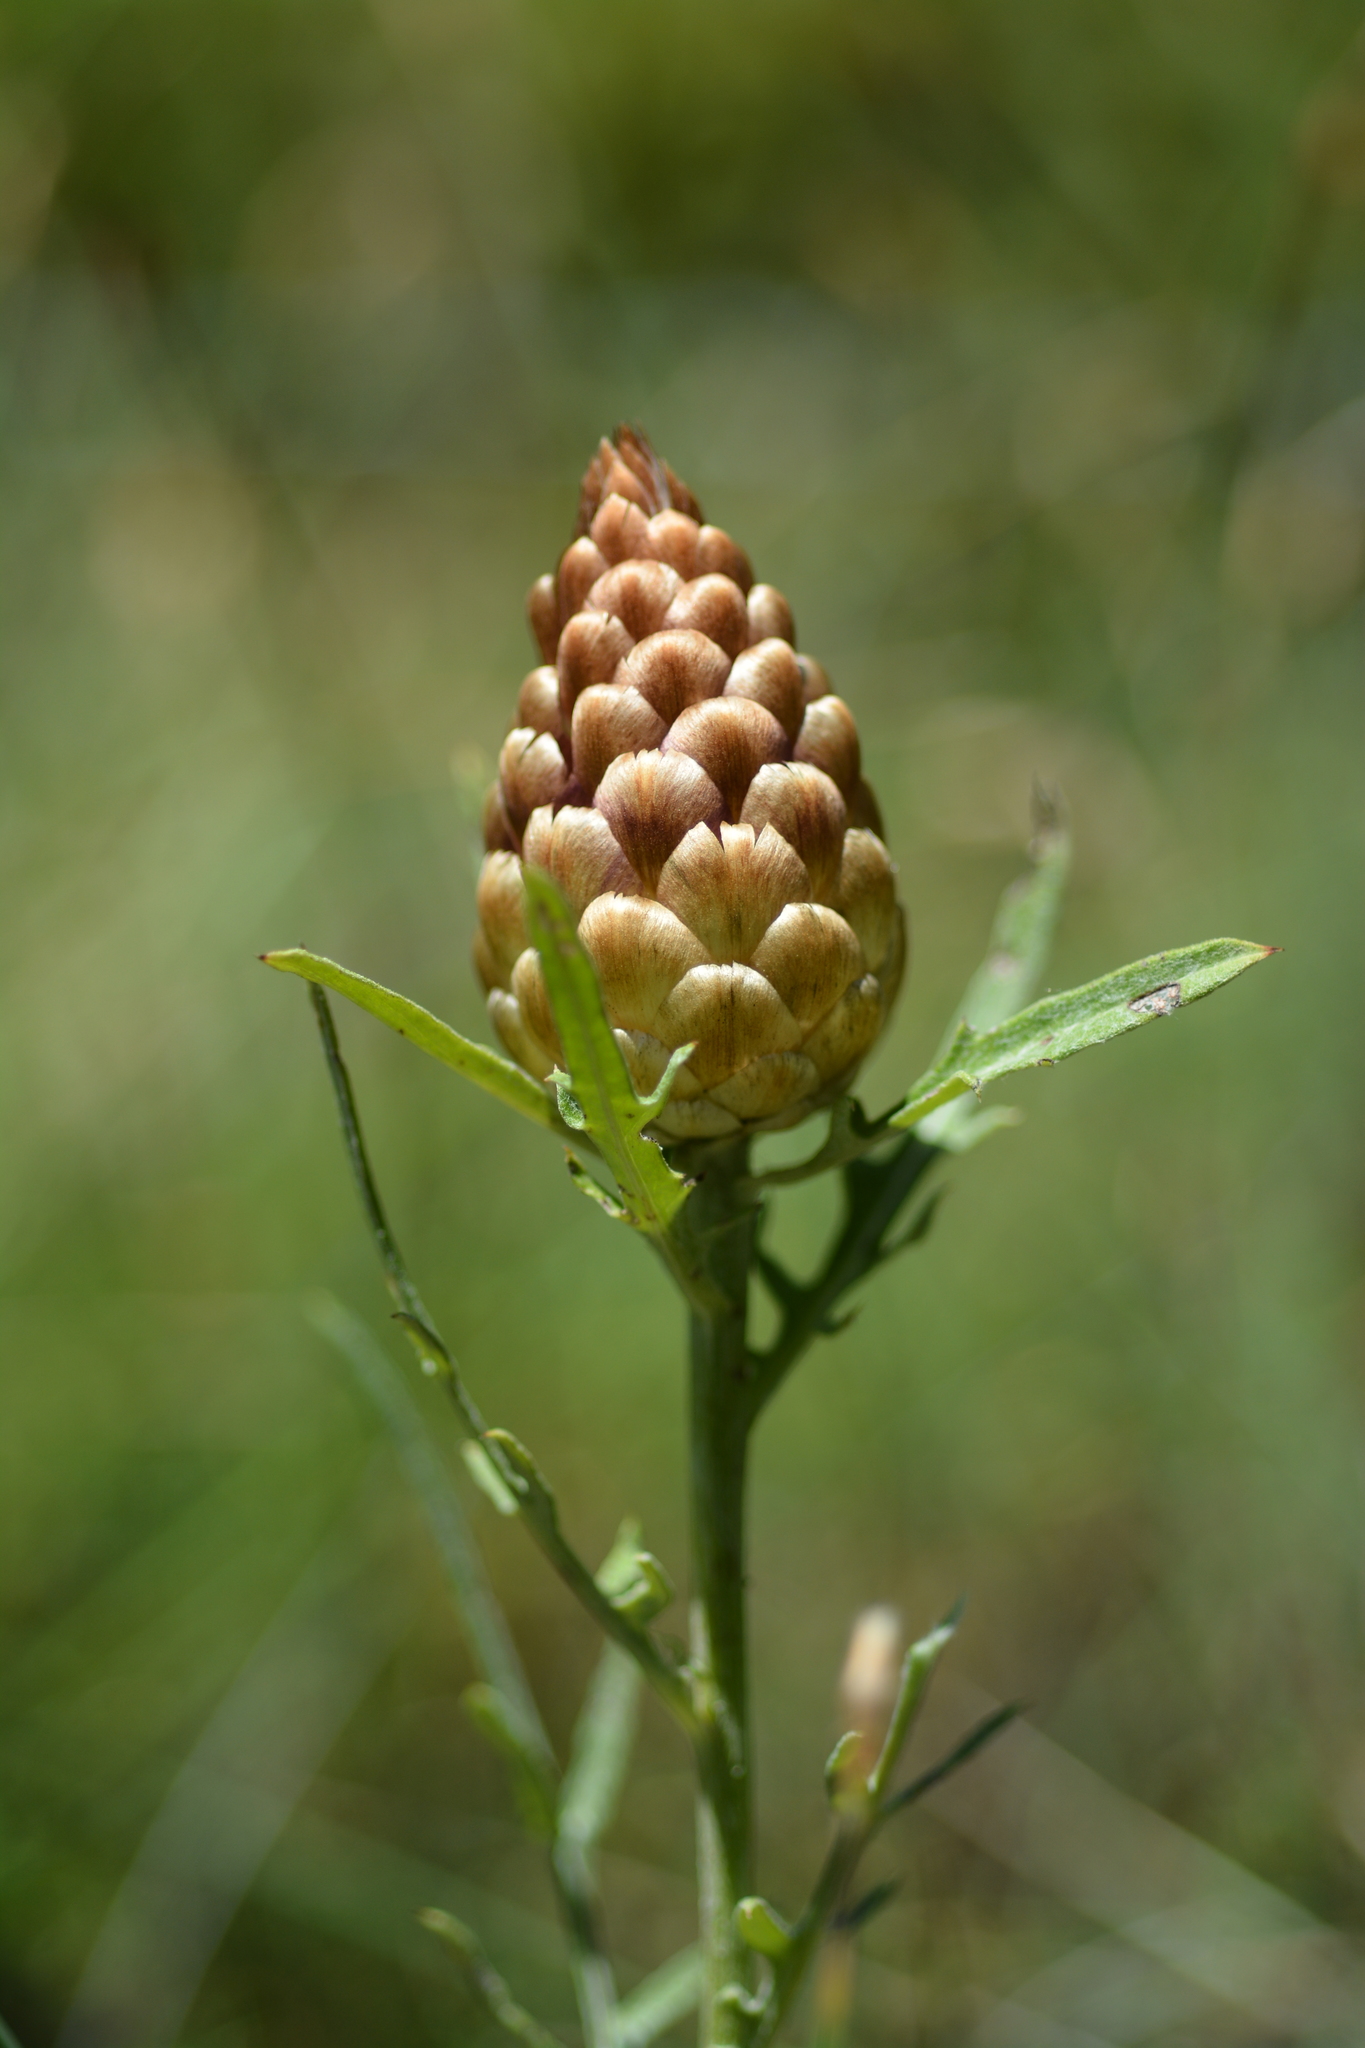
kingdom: Plantae
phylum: Tracheophyta
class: Magnoliopsida
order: Asterales
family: Asteraceae
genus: Leuzea
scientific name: Leuzea conifera
